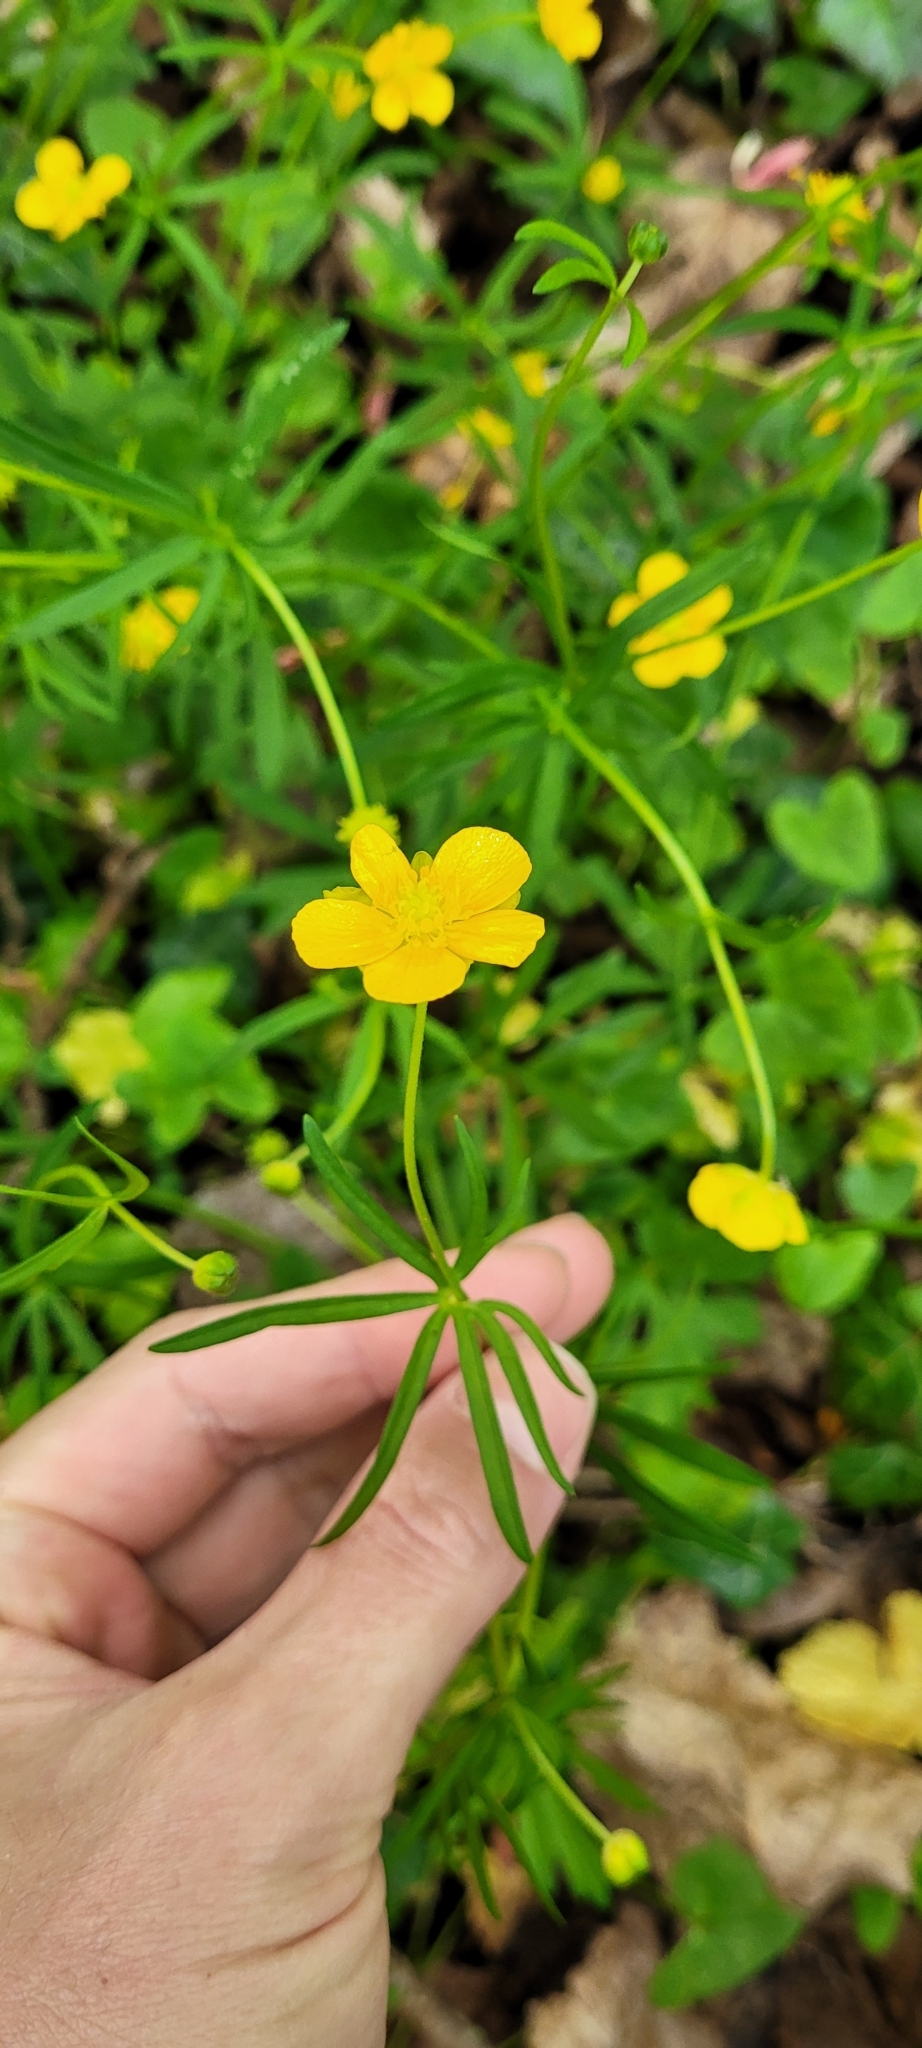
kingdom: Plantae
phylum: Tracheophyta
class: Magnoliopsida
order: Ranunculales
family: Ranunculaceae
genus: Ranunculus
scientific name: Ranunculus auricomus
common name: Goldilocks buttercup
